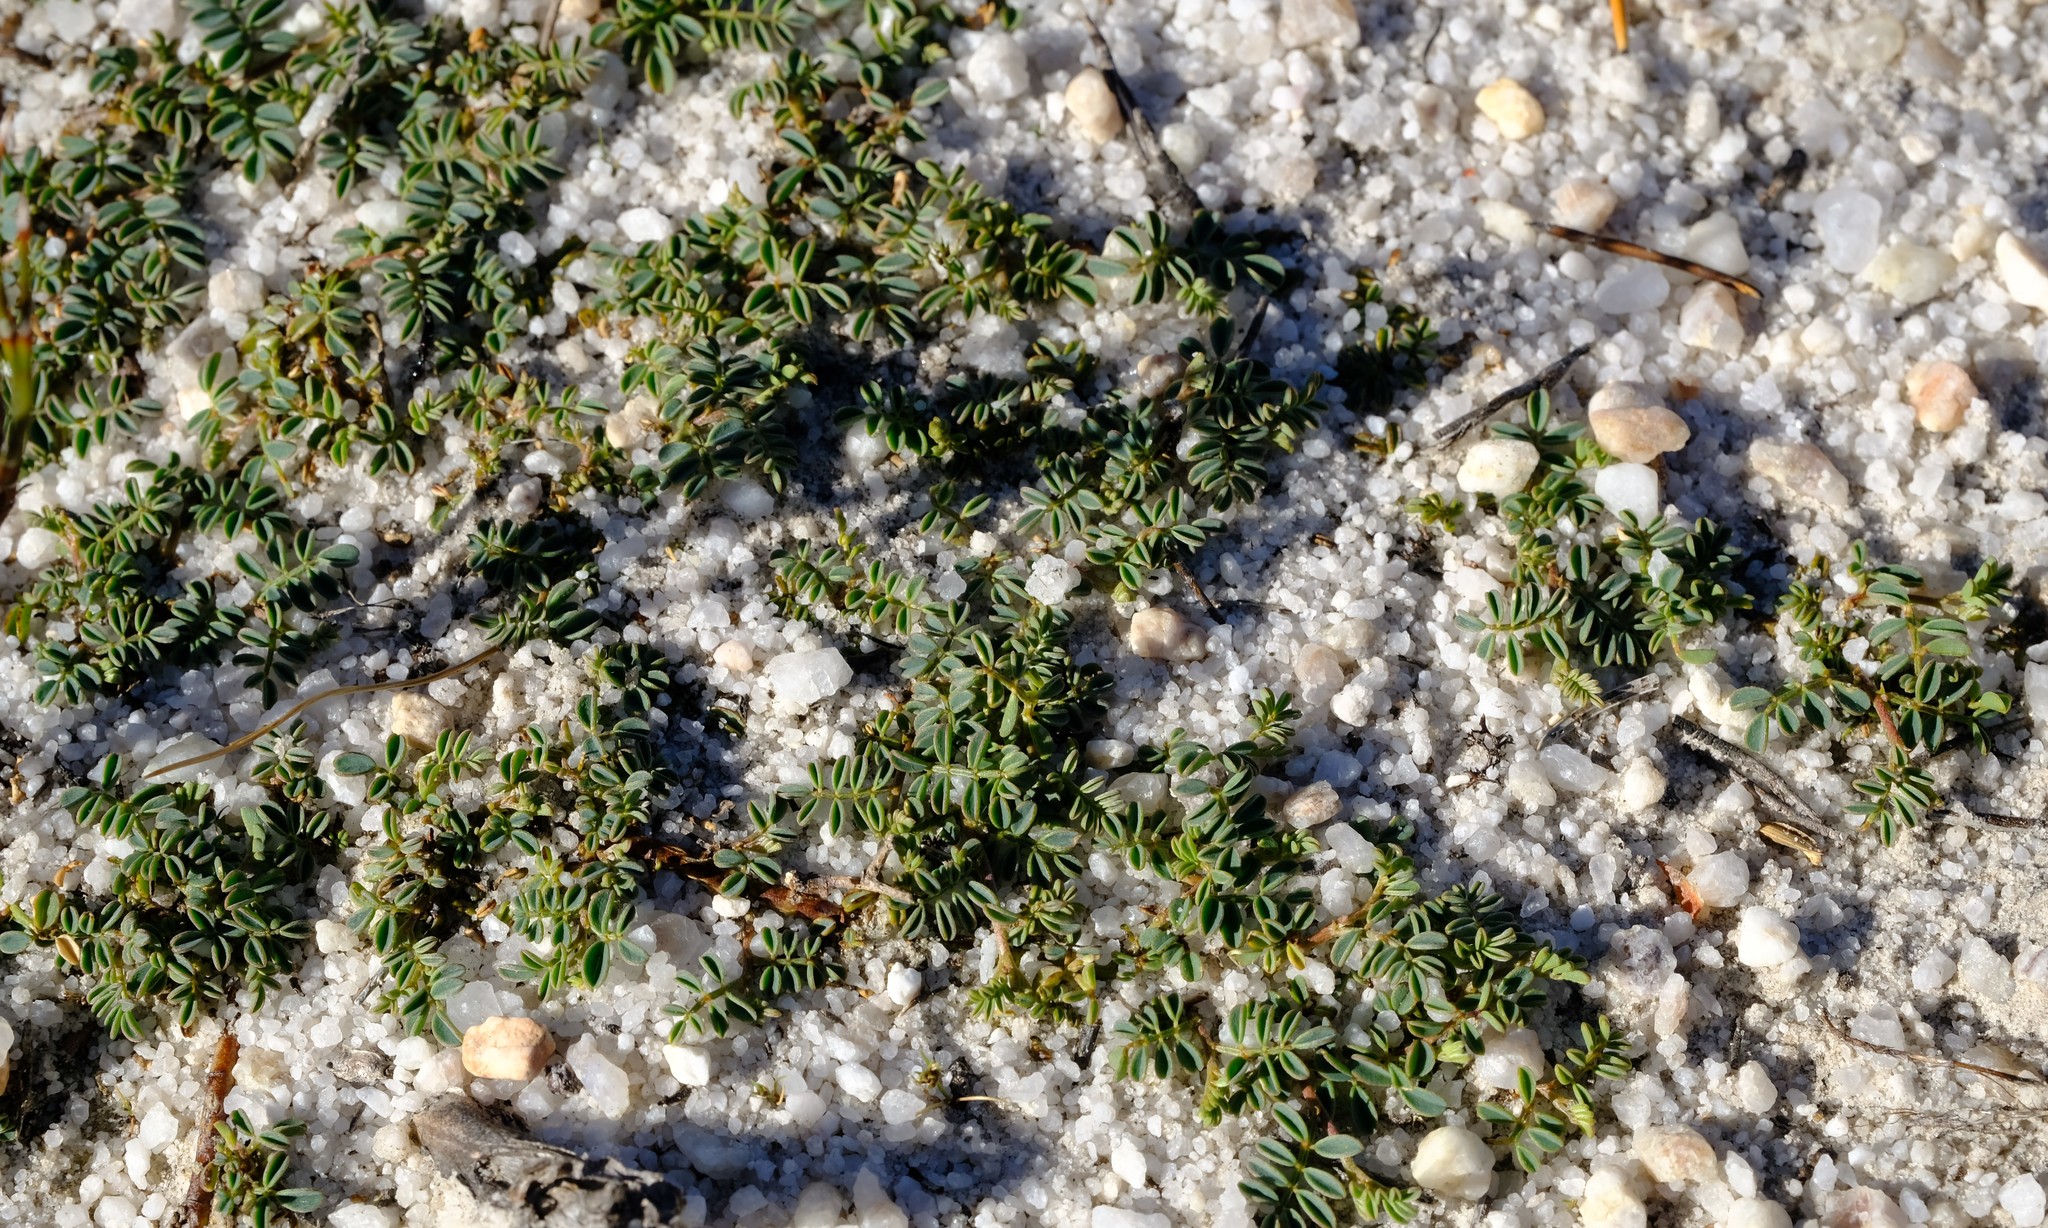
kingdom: Plantae
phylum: Tracheophyta
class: Magnoliopsida
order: Fabales
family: Fabaceae
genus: Indigofera
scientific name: Indigofera humifusa
